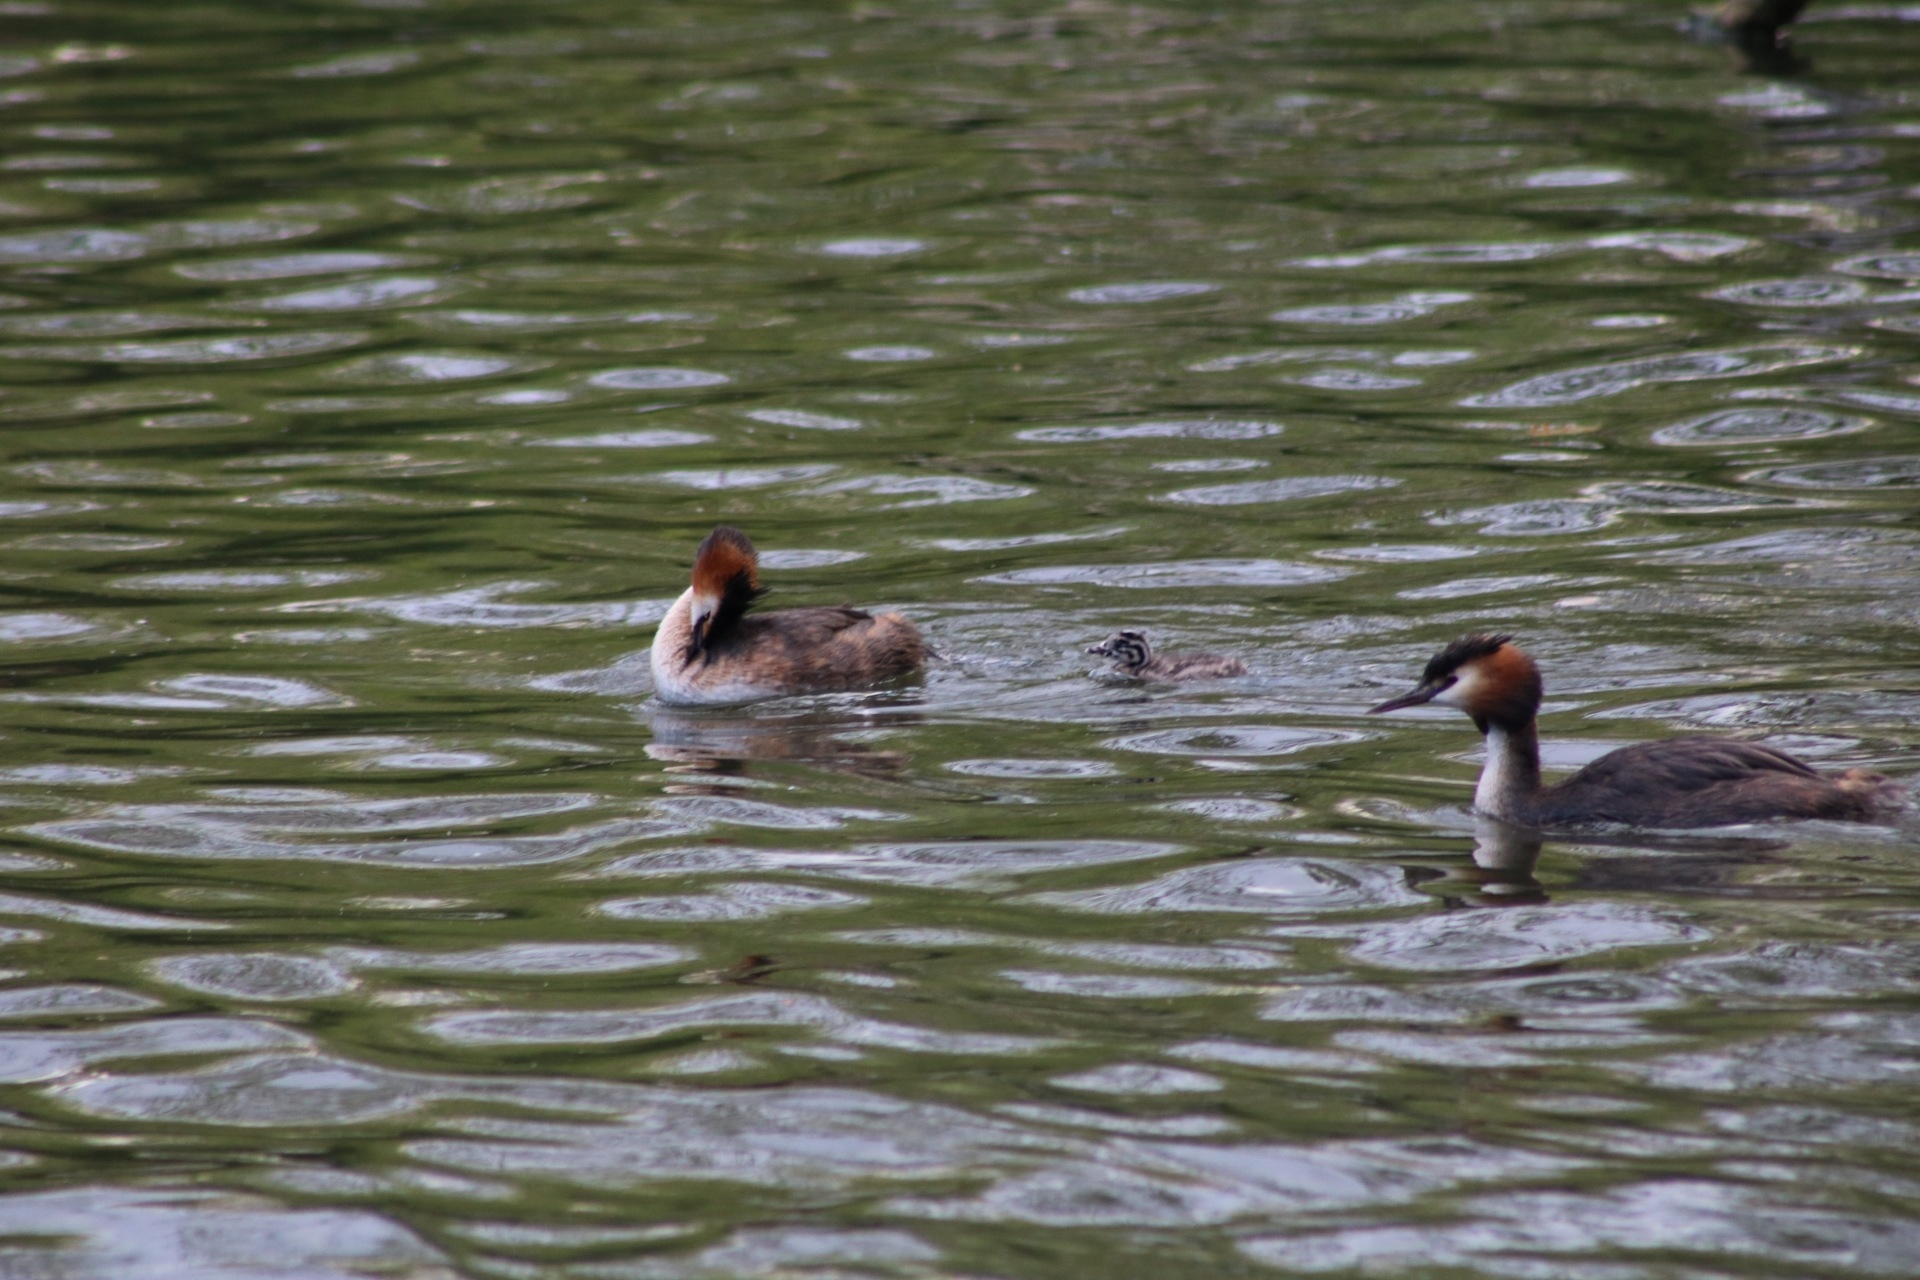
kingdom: Animalia
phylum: Chordata
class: Aves
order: Podicipediformes
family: Podicipedidae
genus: Podiceps
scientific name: Podiceps cristatus
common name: Great crested grebe
